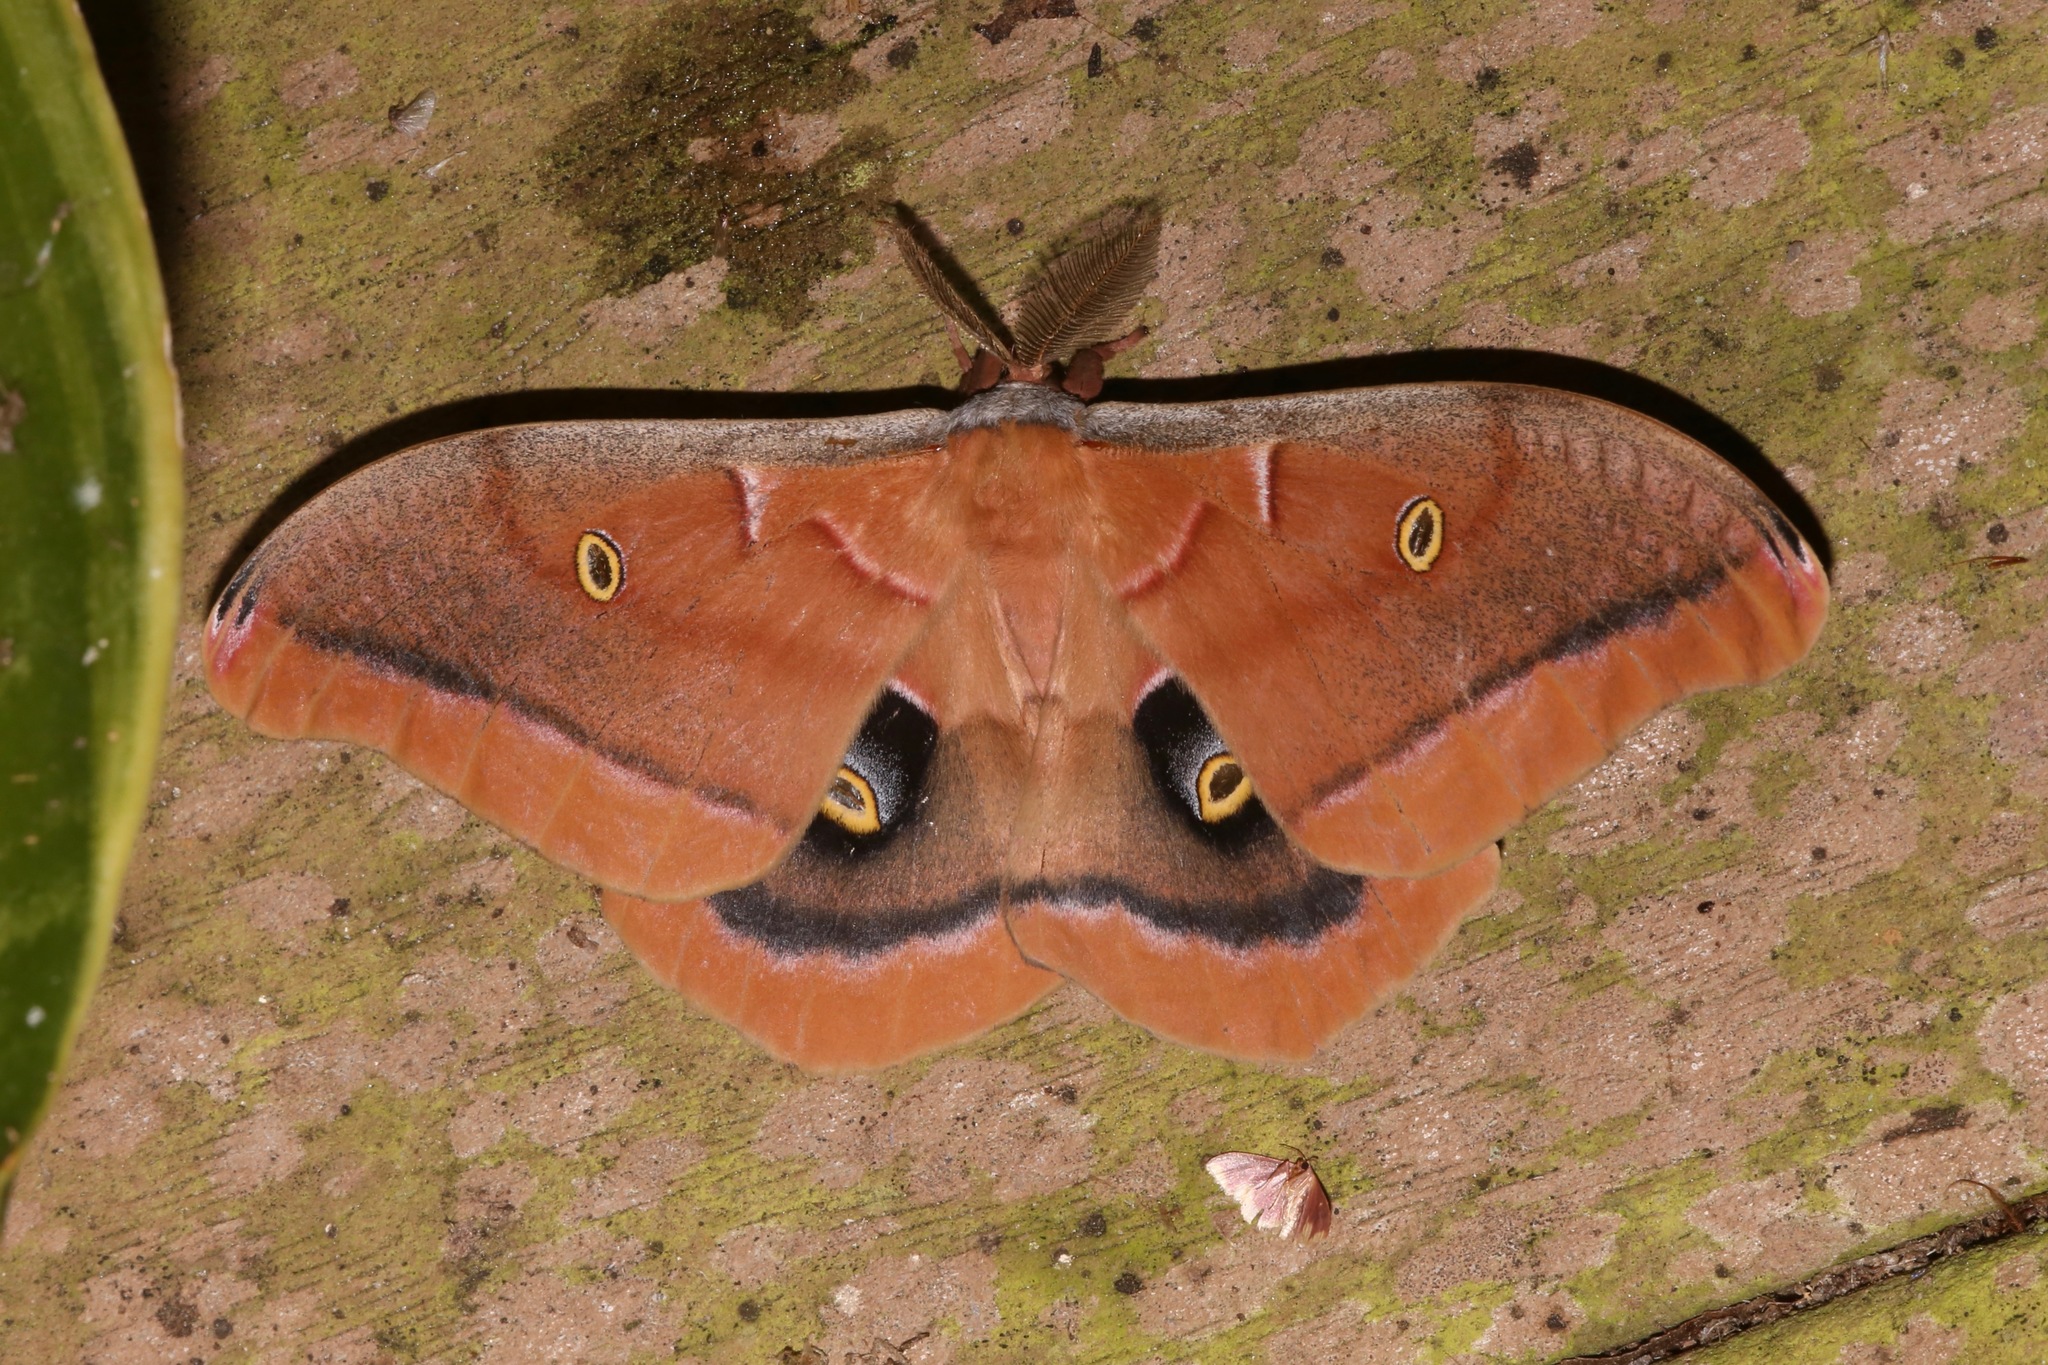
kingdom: Animalia
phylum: Arthropoda
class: Insecta
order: Lepidoptera
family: Saturniidae
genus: Antheraea
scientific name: Antheraea polyphemus
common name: Polyphemus moth
